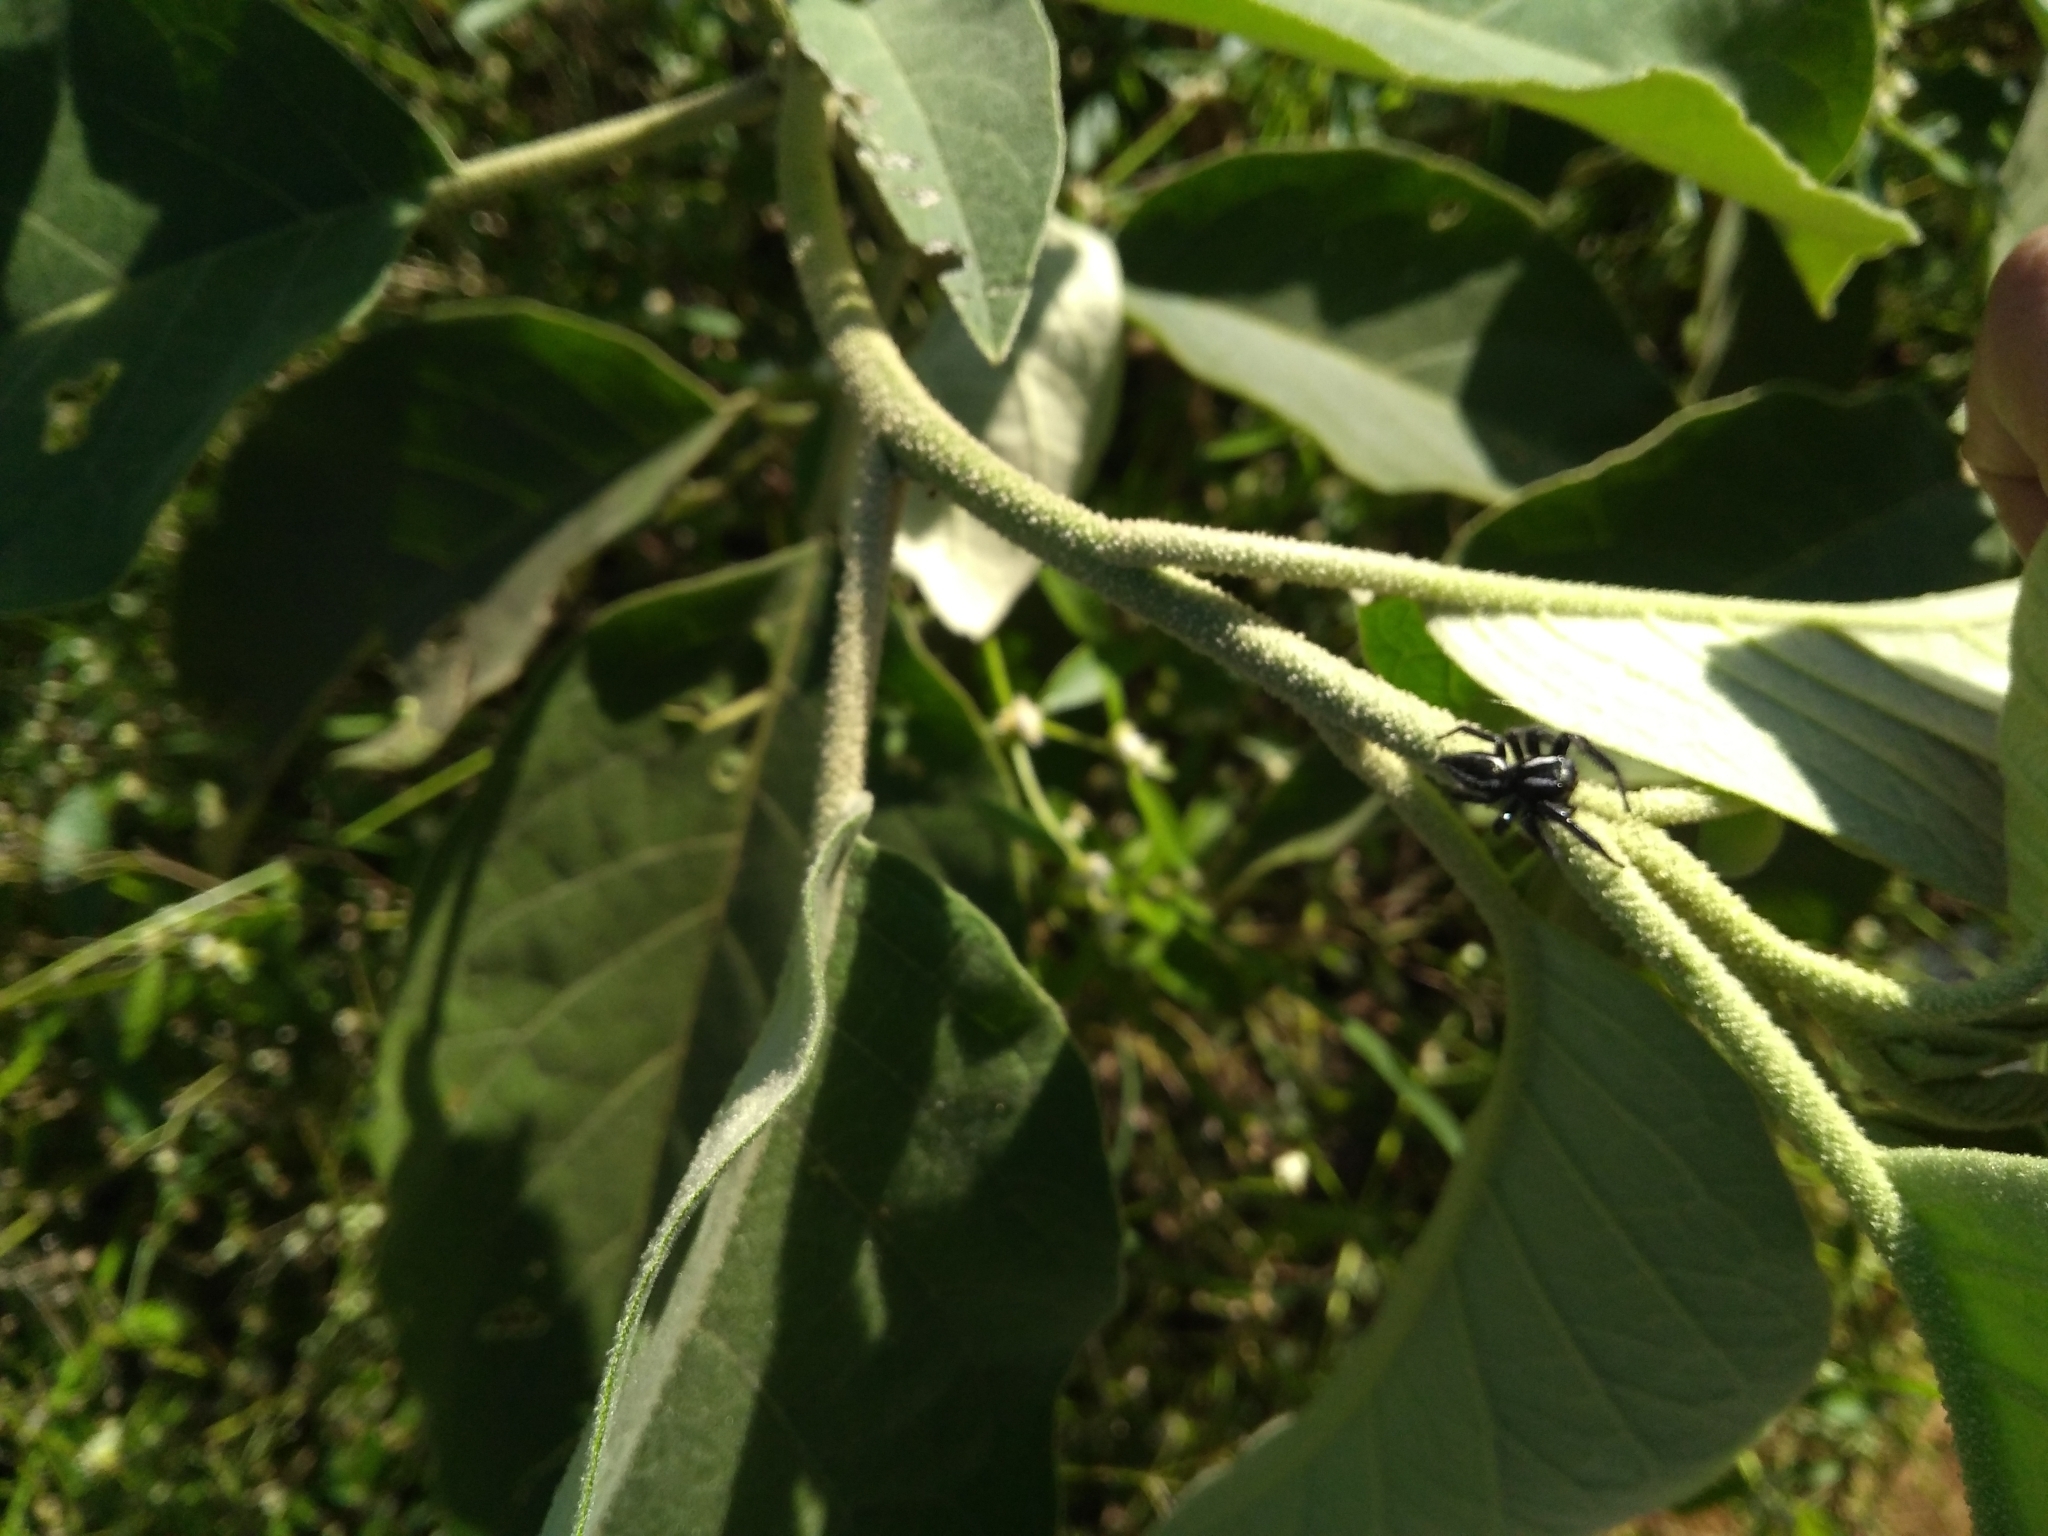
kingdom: Animalia
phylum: Arthropoda
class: Arachnida
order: Araneae
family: Salticidae
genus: Carrhotus
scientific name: Carrhotus viduus
